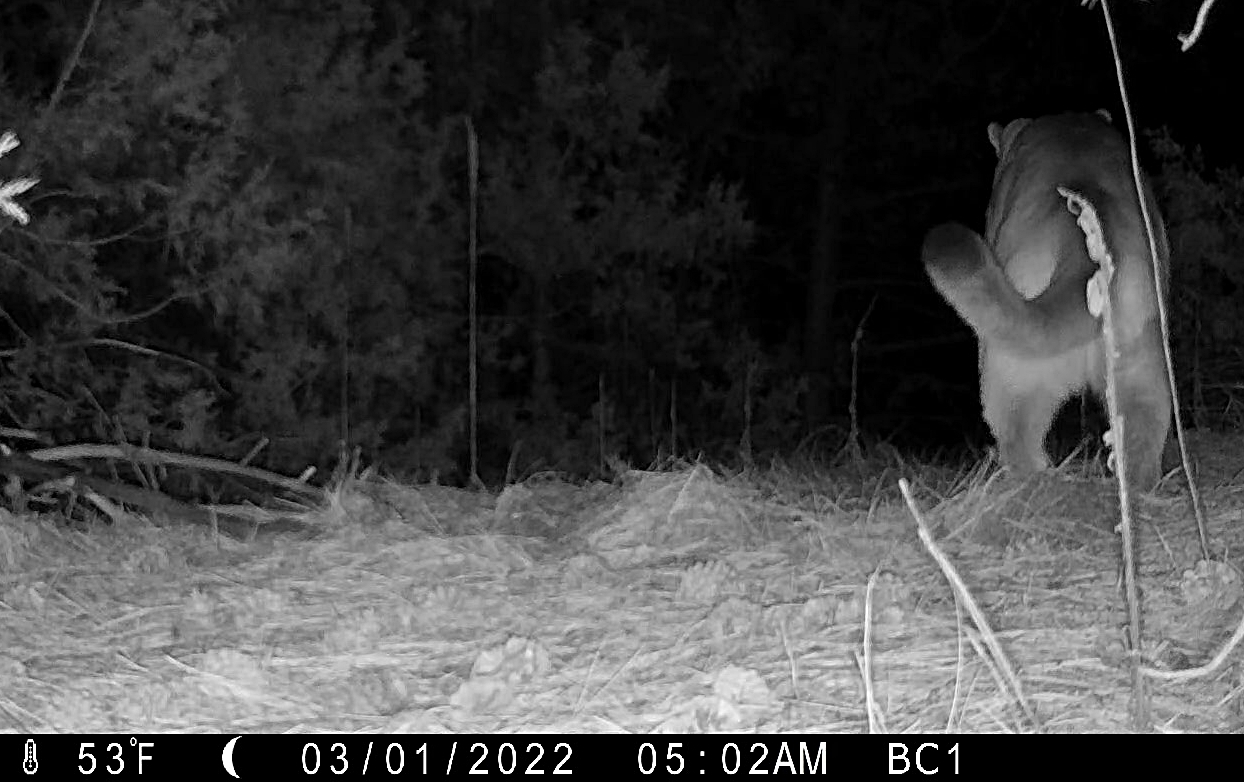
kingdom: Animalia
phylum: Chordata
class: Mammalia
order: Carnivora
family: Felidae
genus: Puma
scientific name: Puma concolor
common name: Puma
